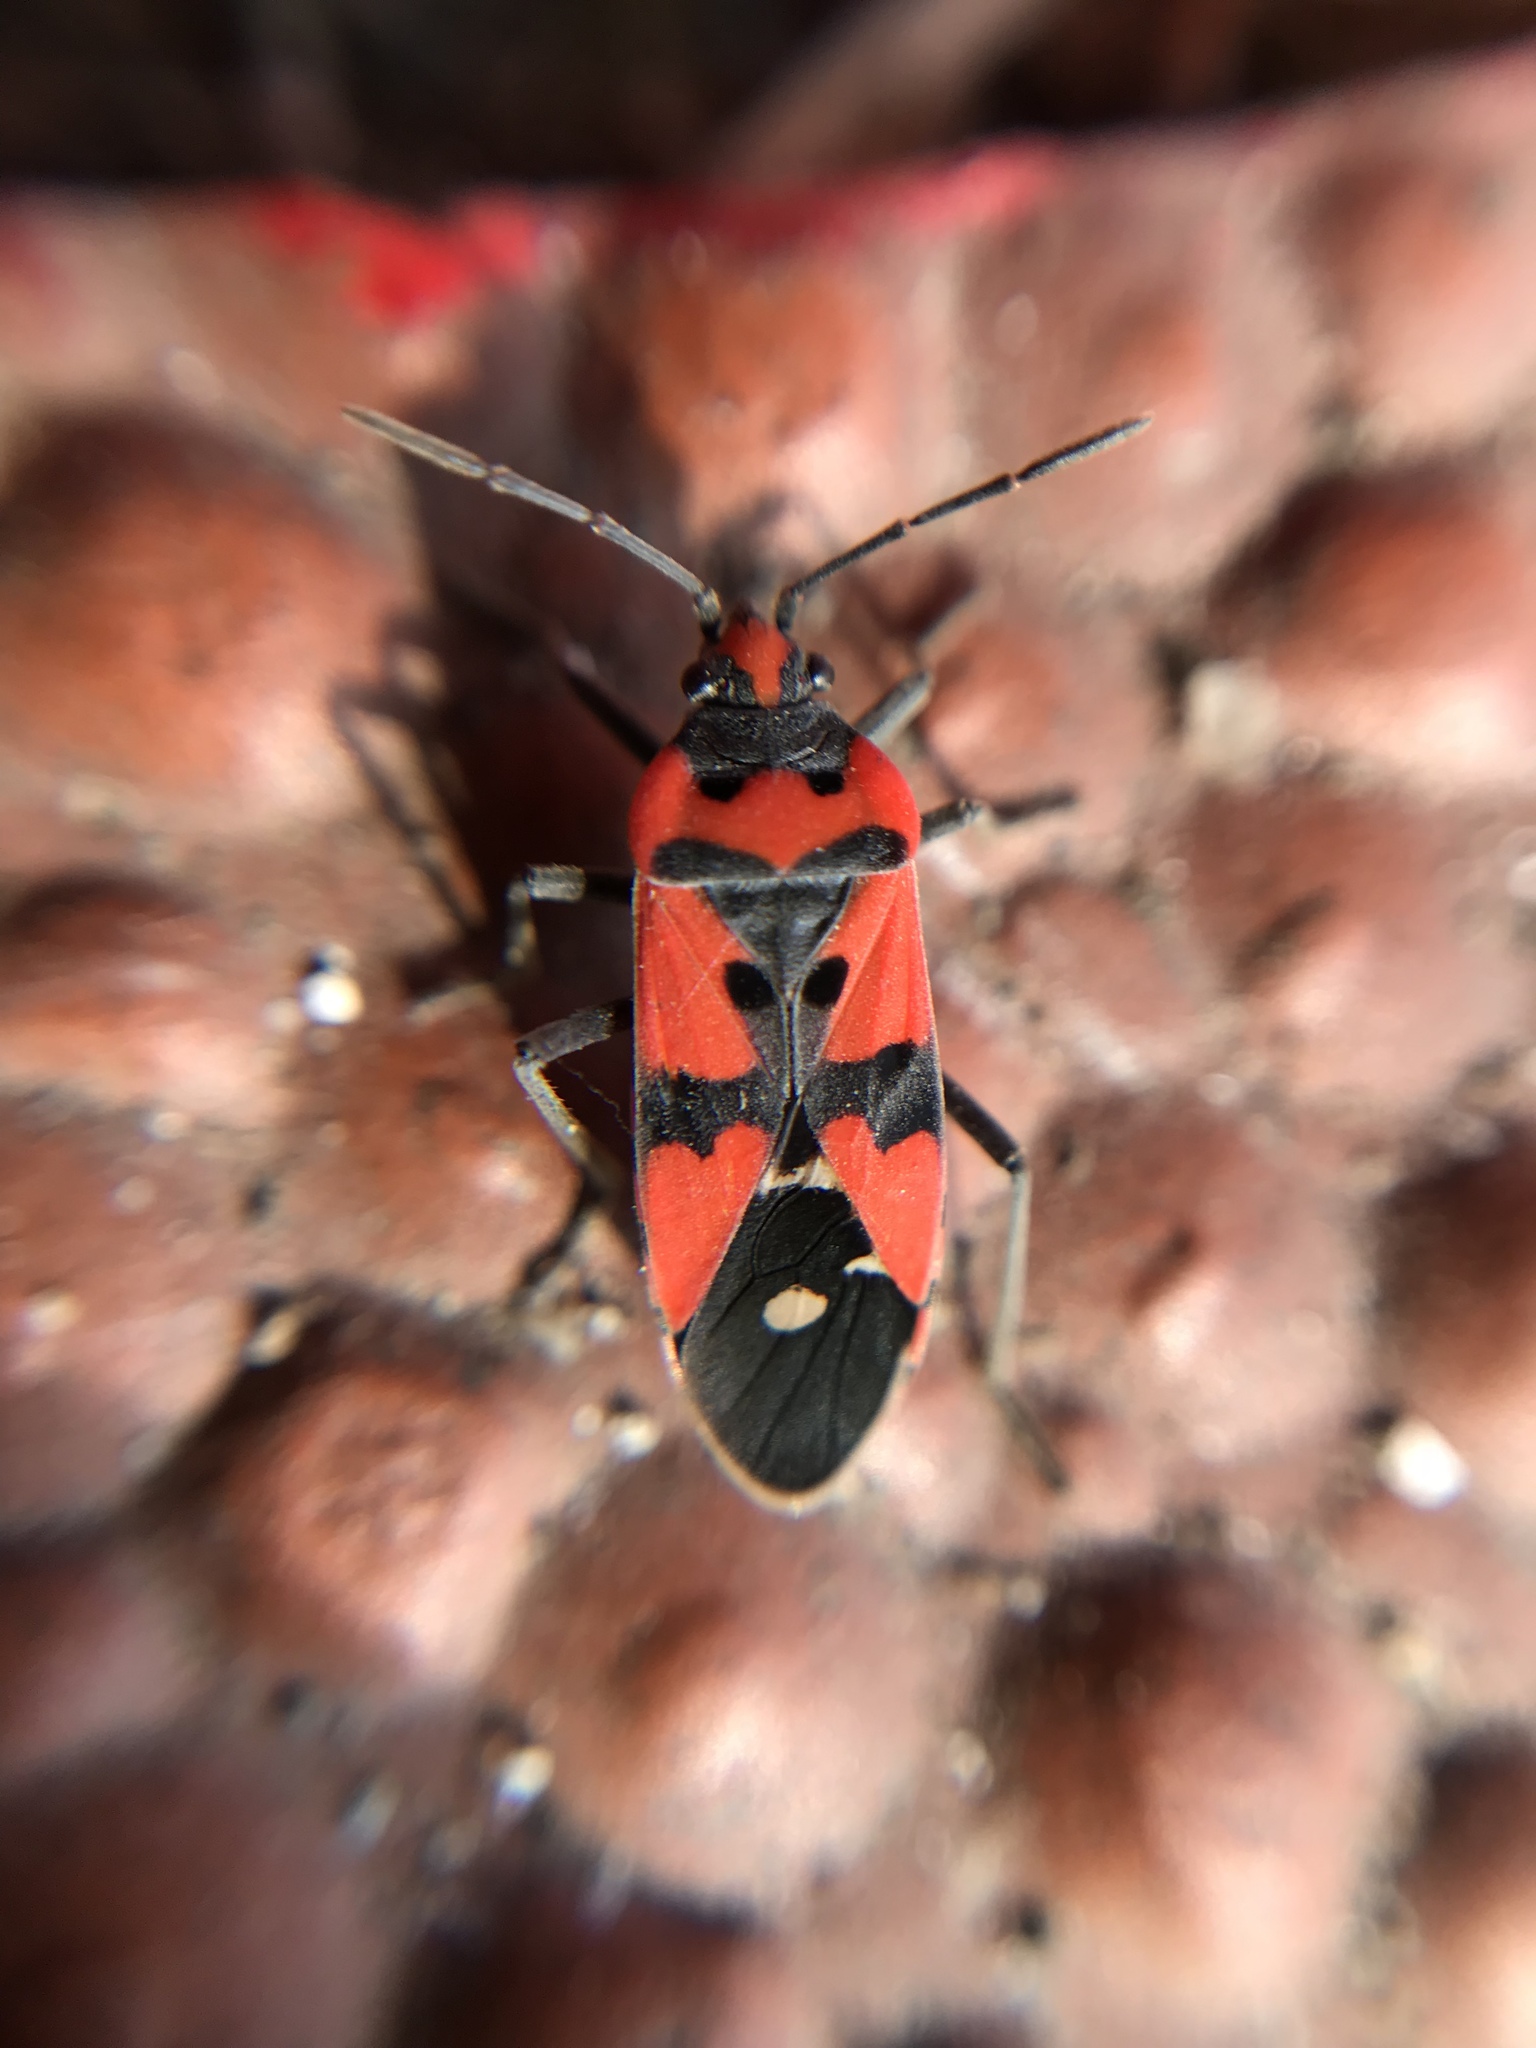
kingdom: Animalia
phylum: Arthropoda
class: Insecta
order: Hemiptera
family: Lygaeidae
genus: Lygaeus
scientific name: Lygaeus equestris
